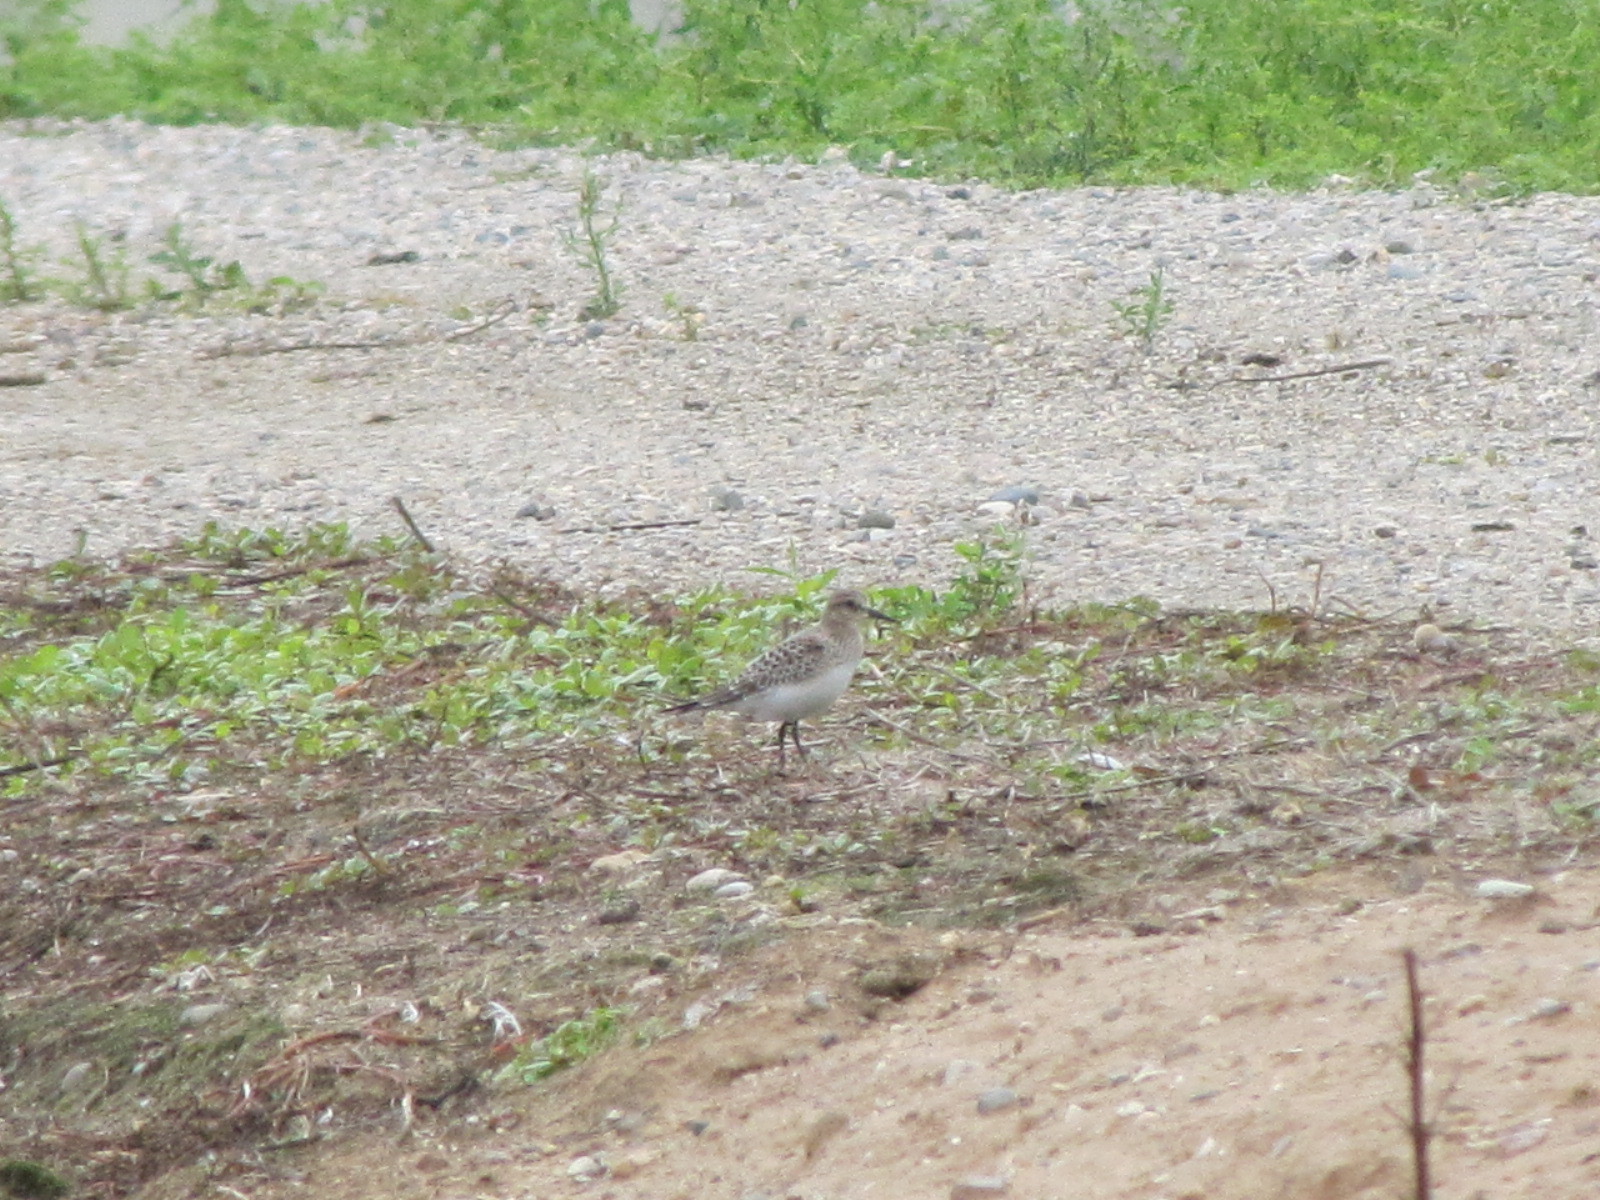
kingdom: Animalia
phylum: Chordata
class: Aves
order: Charadriiformes
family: Scolopacidae
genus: Calidris
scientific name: Calidris bairdii
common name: Baird's sandpiper
